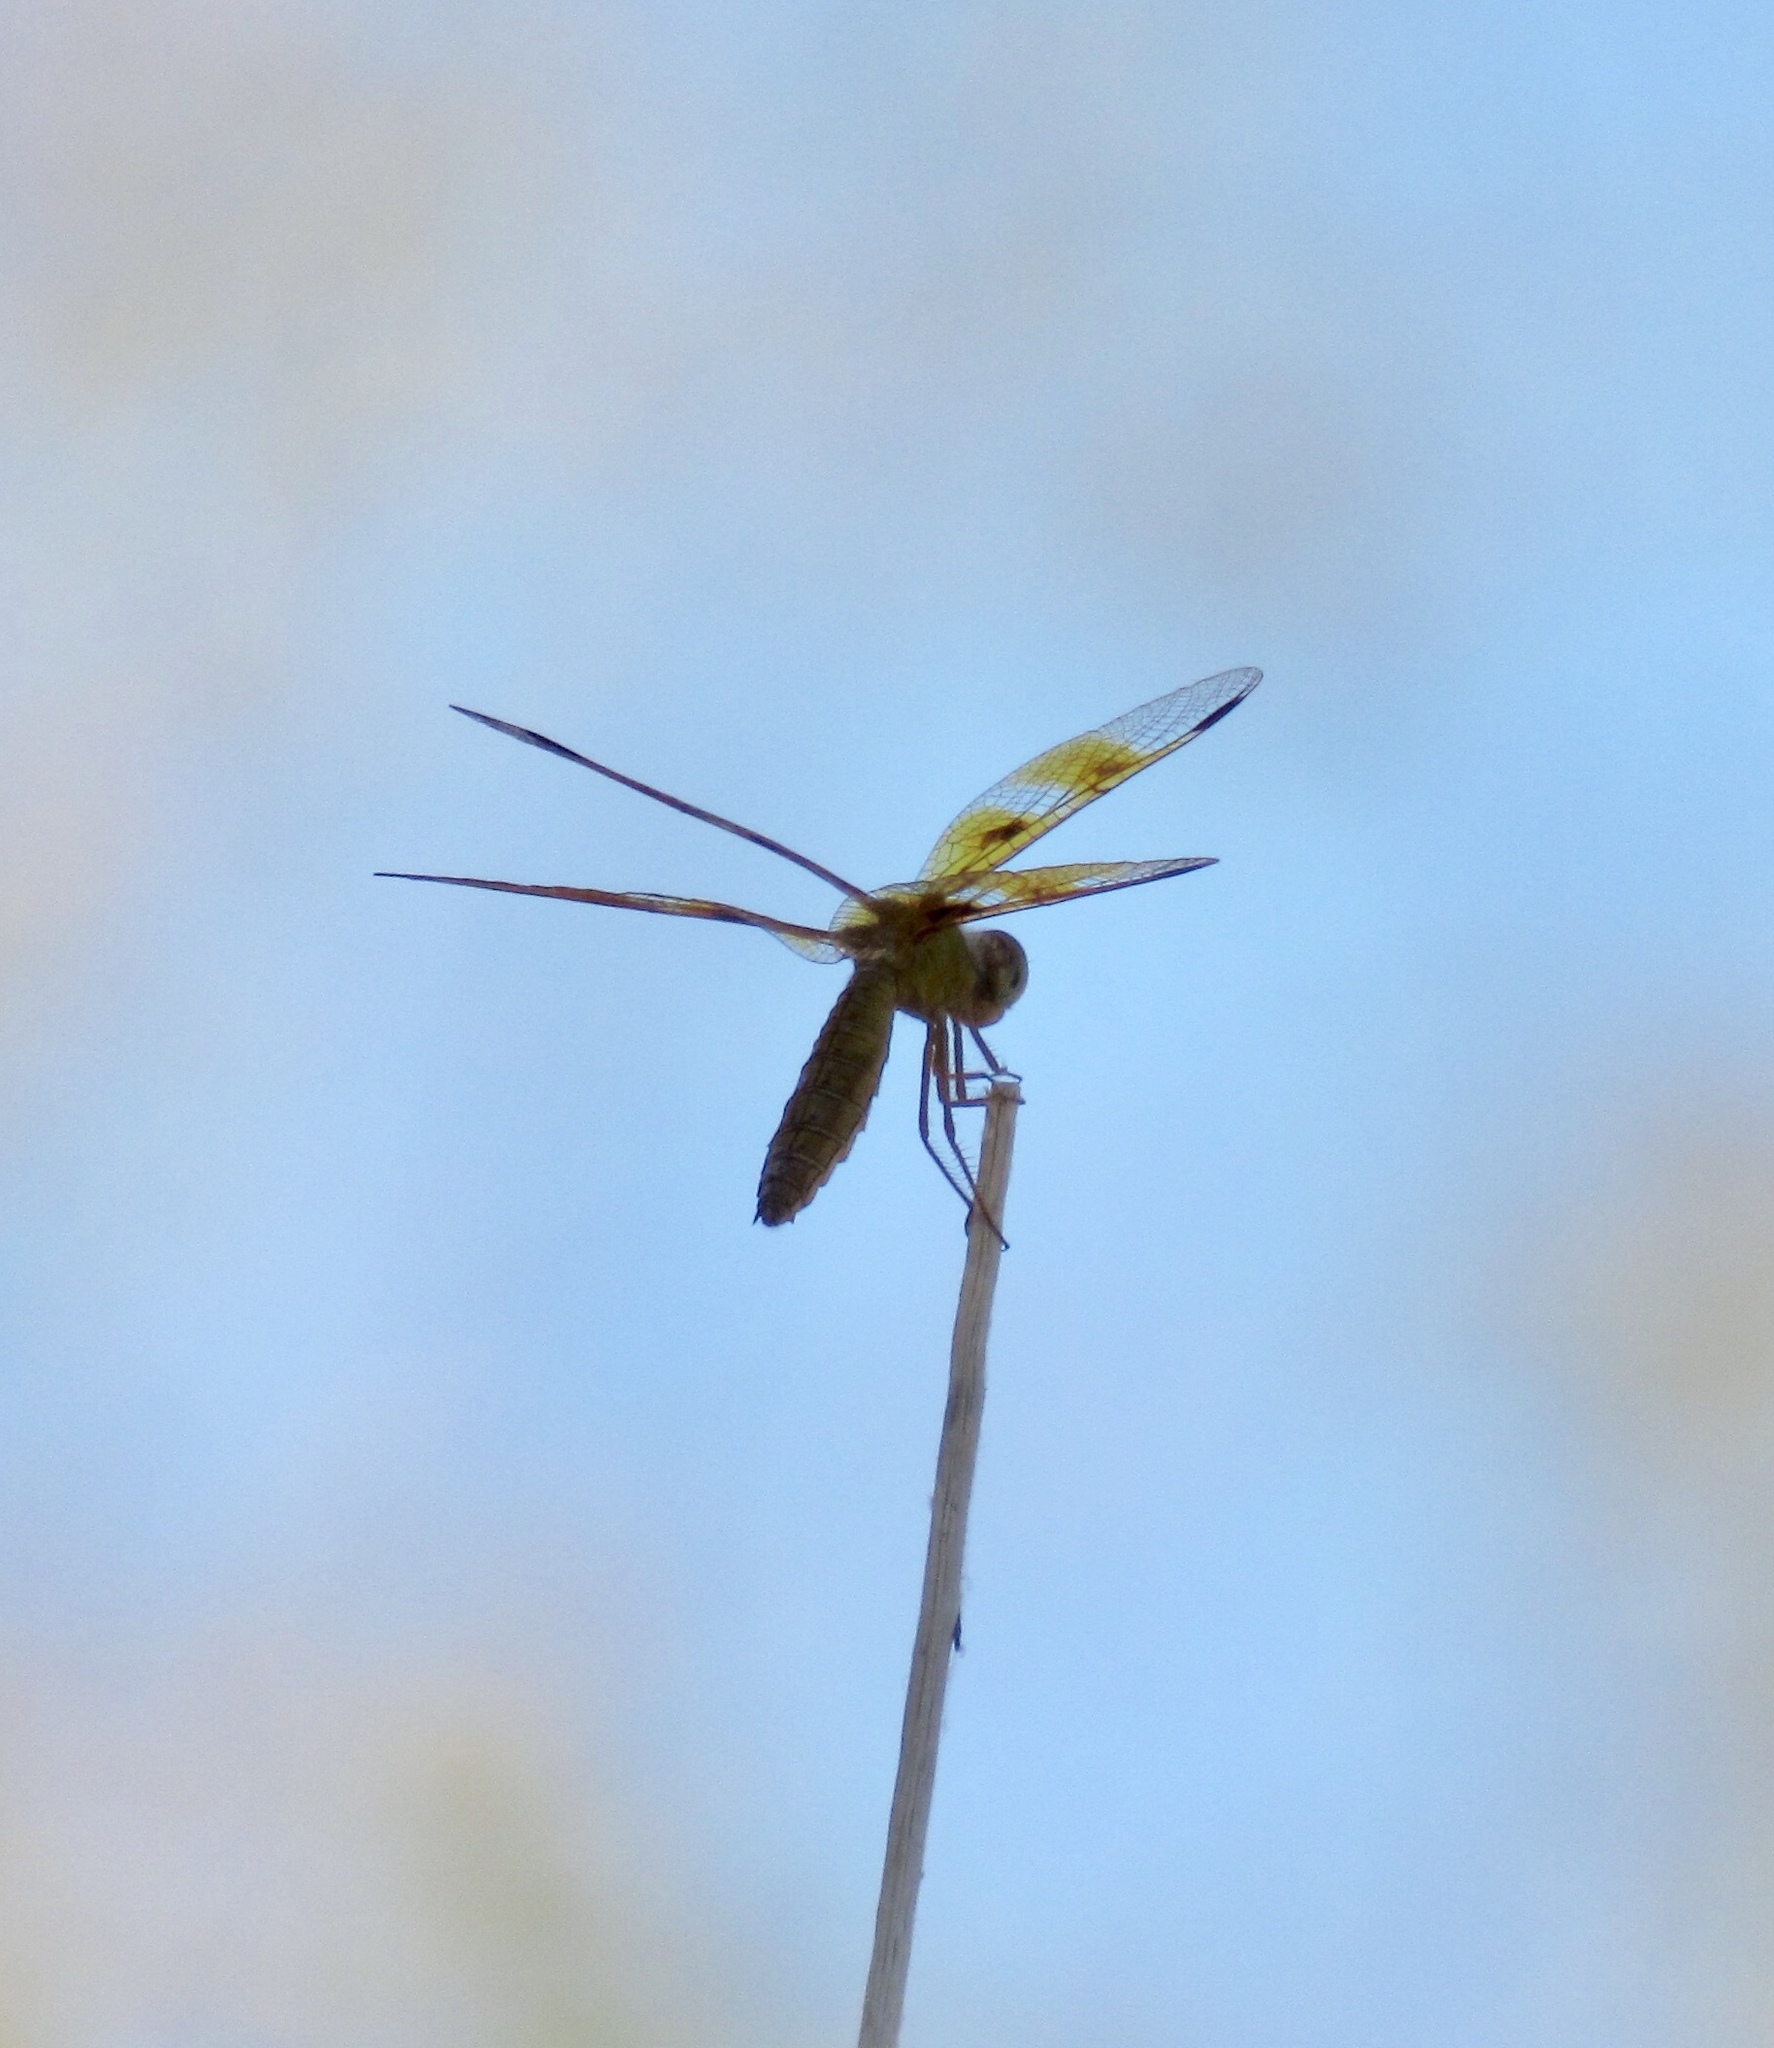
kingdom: Animalia
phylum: Arthropoda
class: Insecta
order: Odonata
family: Libellulidae
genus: Perithemis
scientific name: Perithemis intensa
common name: Mexican amberwing
